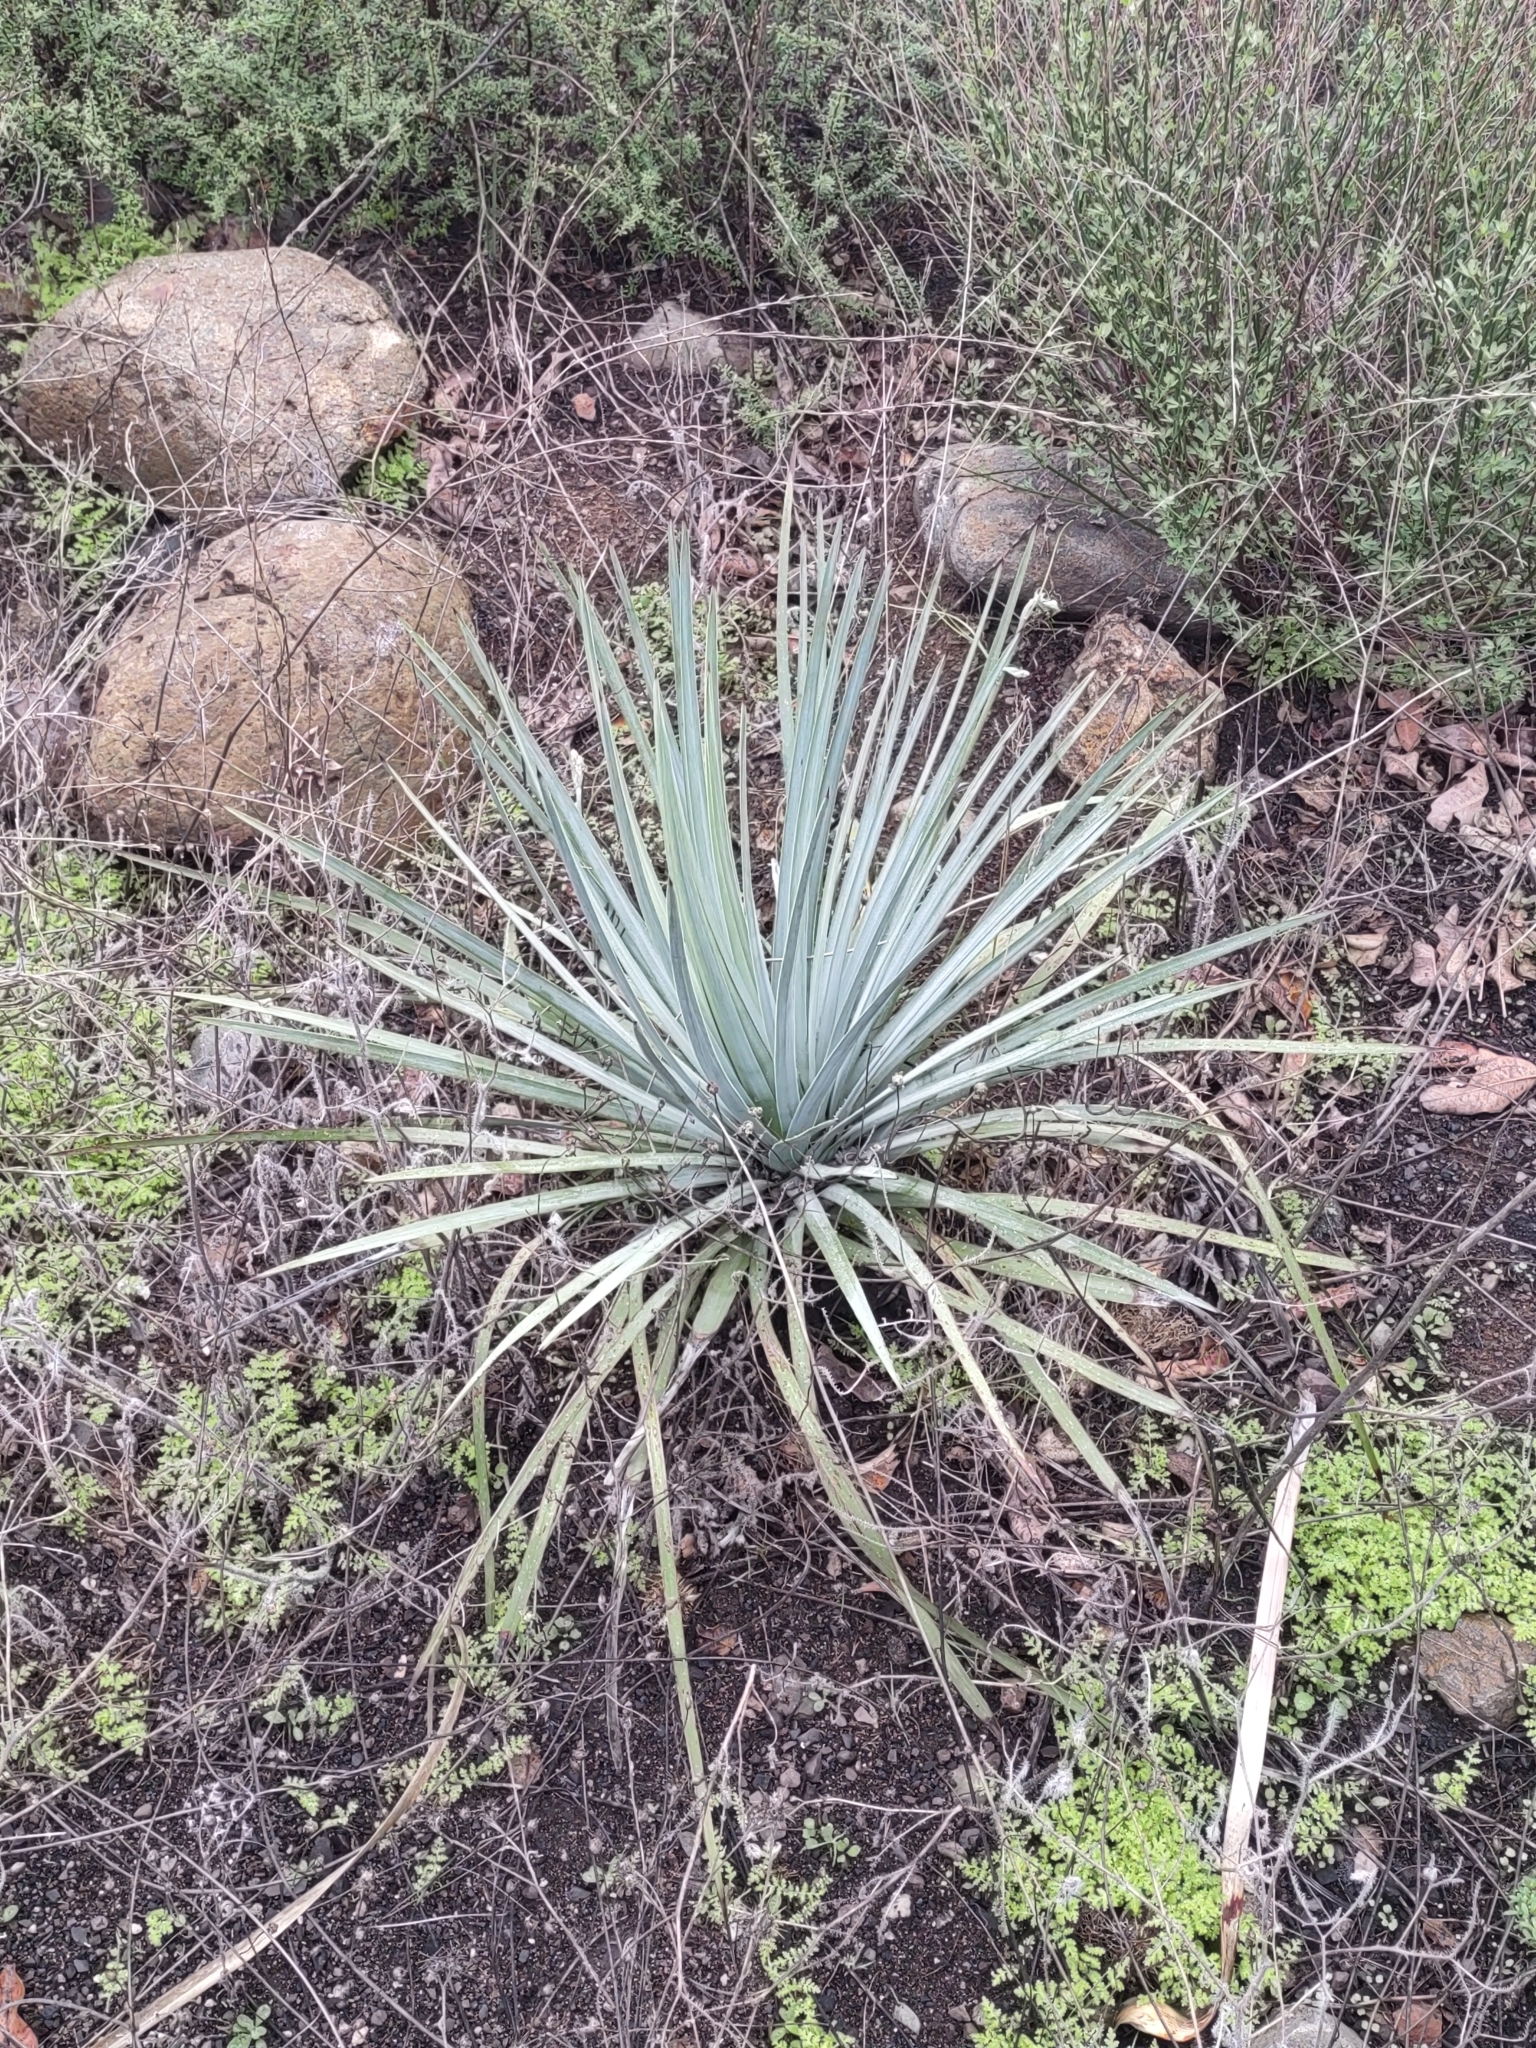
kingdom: Plantae
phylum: Tracheophyta
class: Liliopsida
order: Asparagales
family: Asparagaceae
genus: Hesperoyucca
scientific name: Hesperoyucca whipplei
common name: Our lord's-candle
